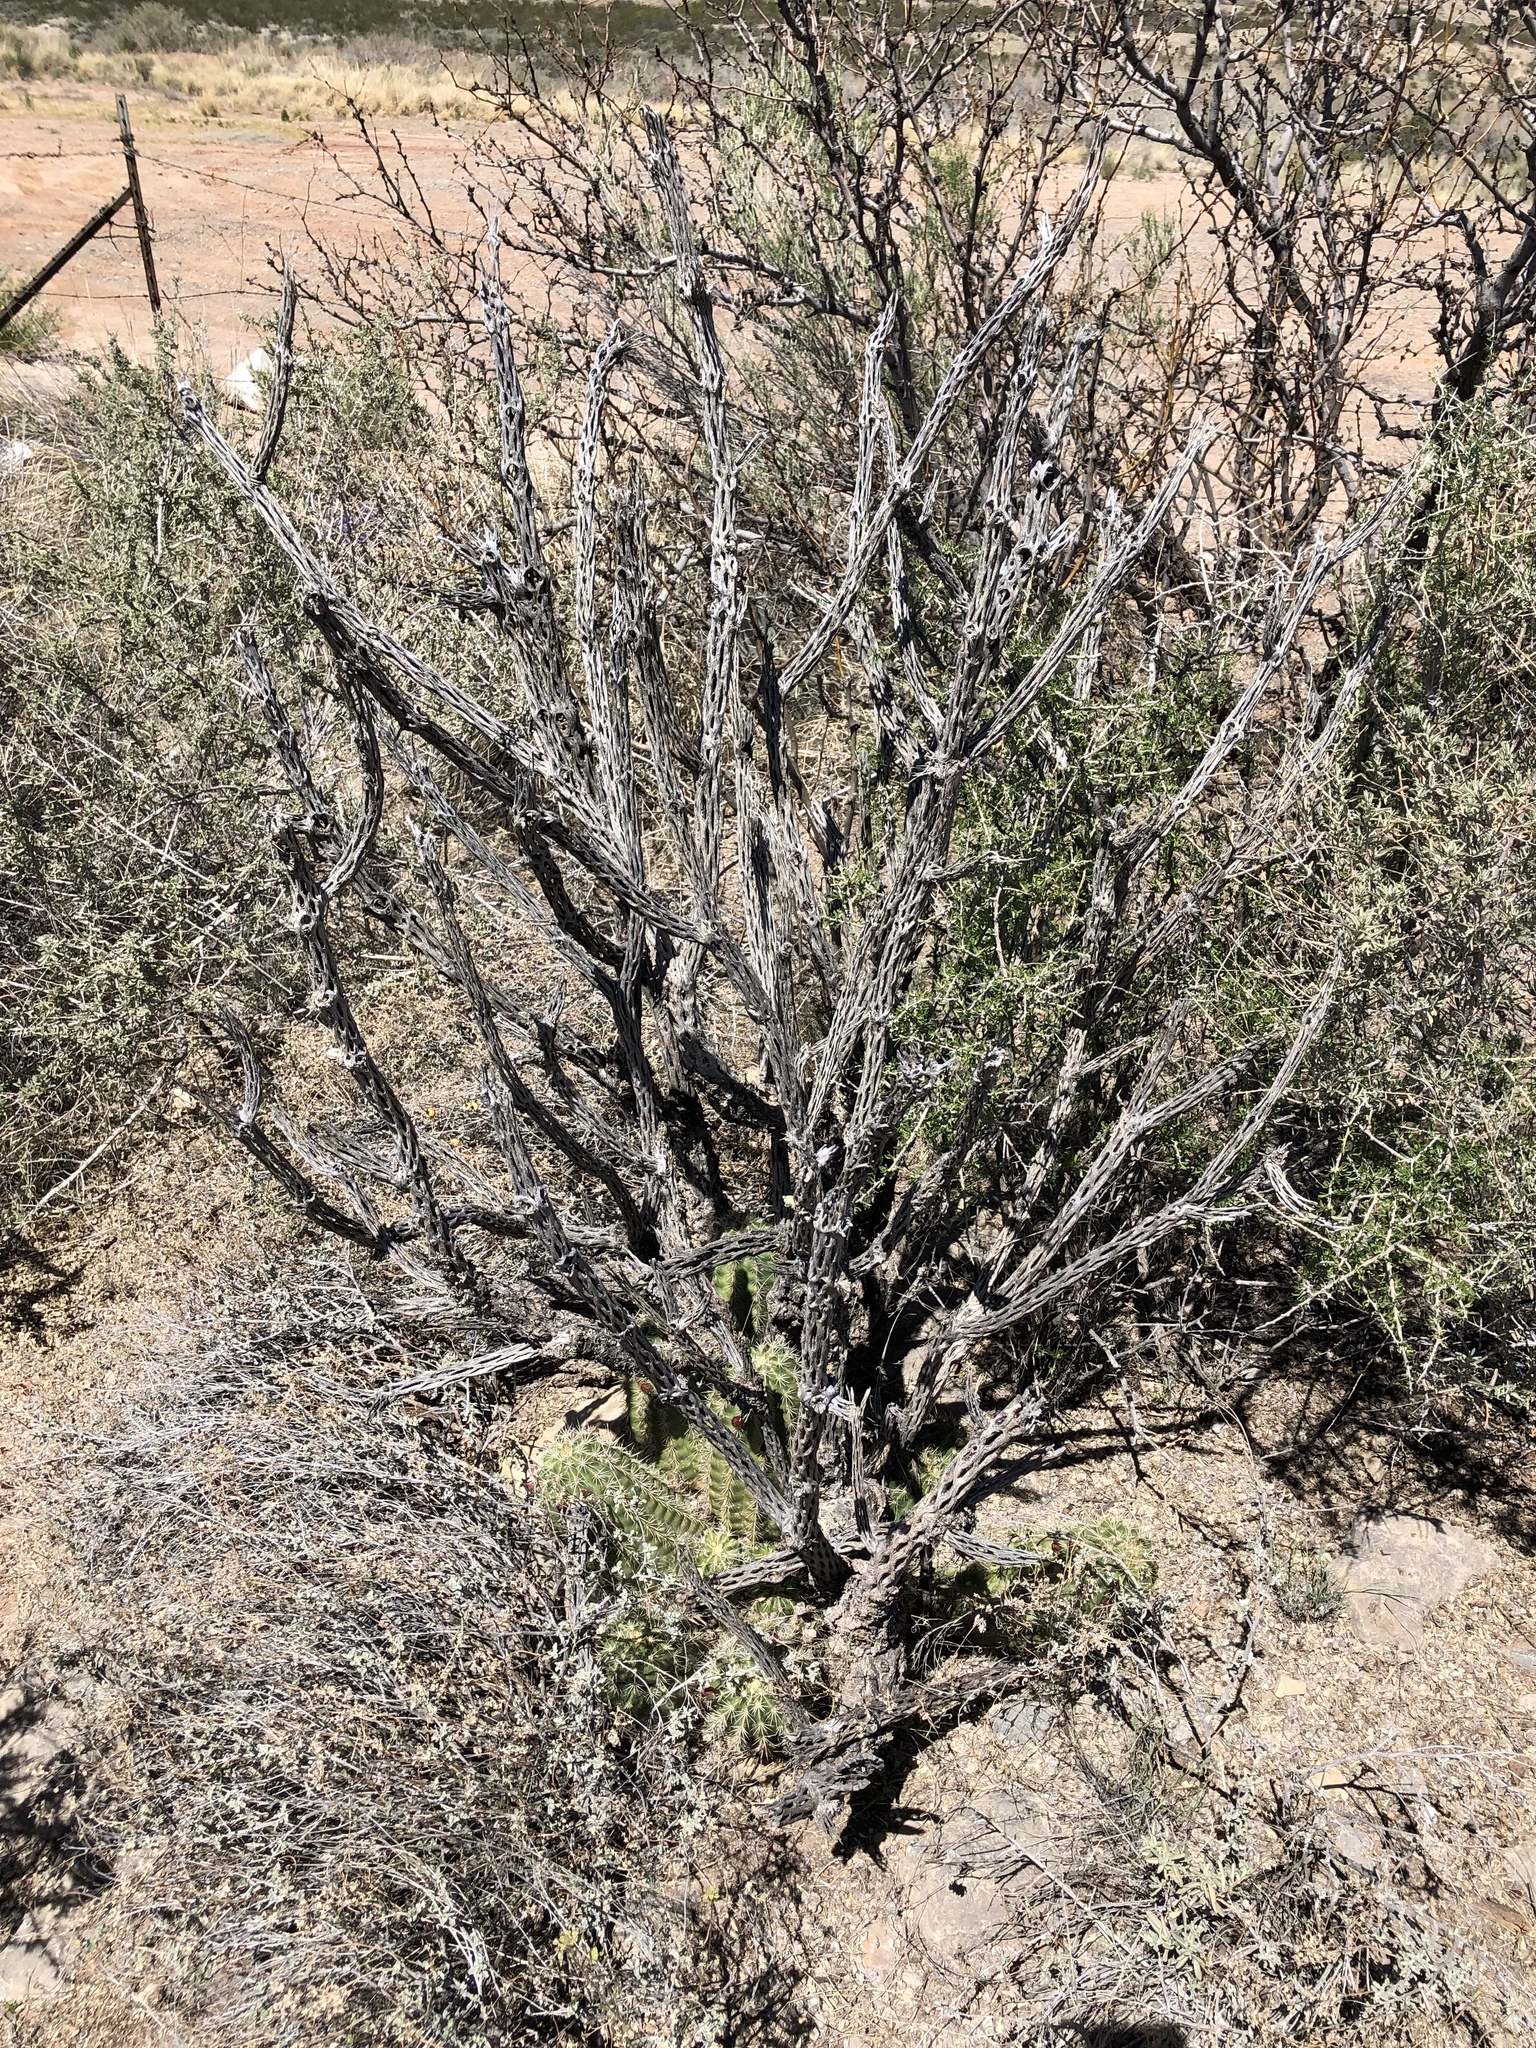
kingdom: Plantae
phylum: Tracheophyta
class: Magnoliopsida
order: Caryophyllales
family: Cactaceae
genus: Cylindropuntia
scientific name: Cylindropuntia imbricata
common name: Candelabrum cactus
